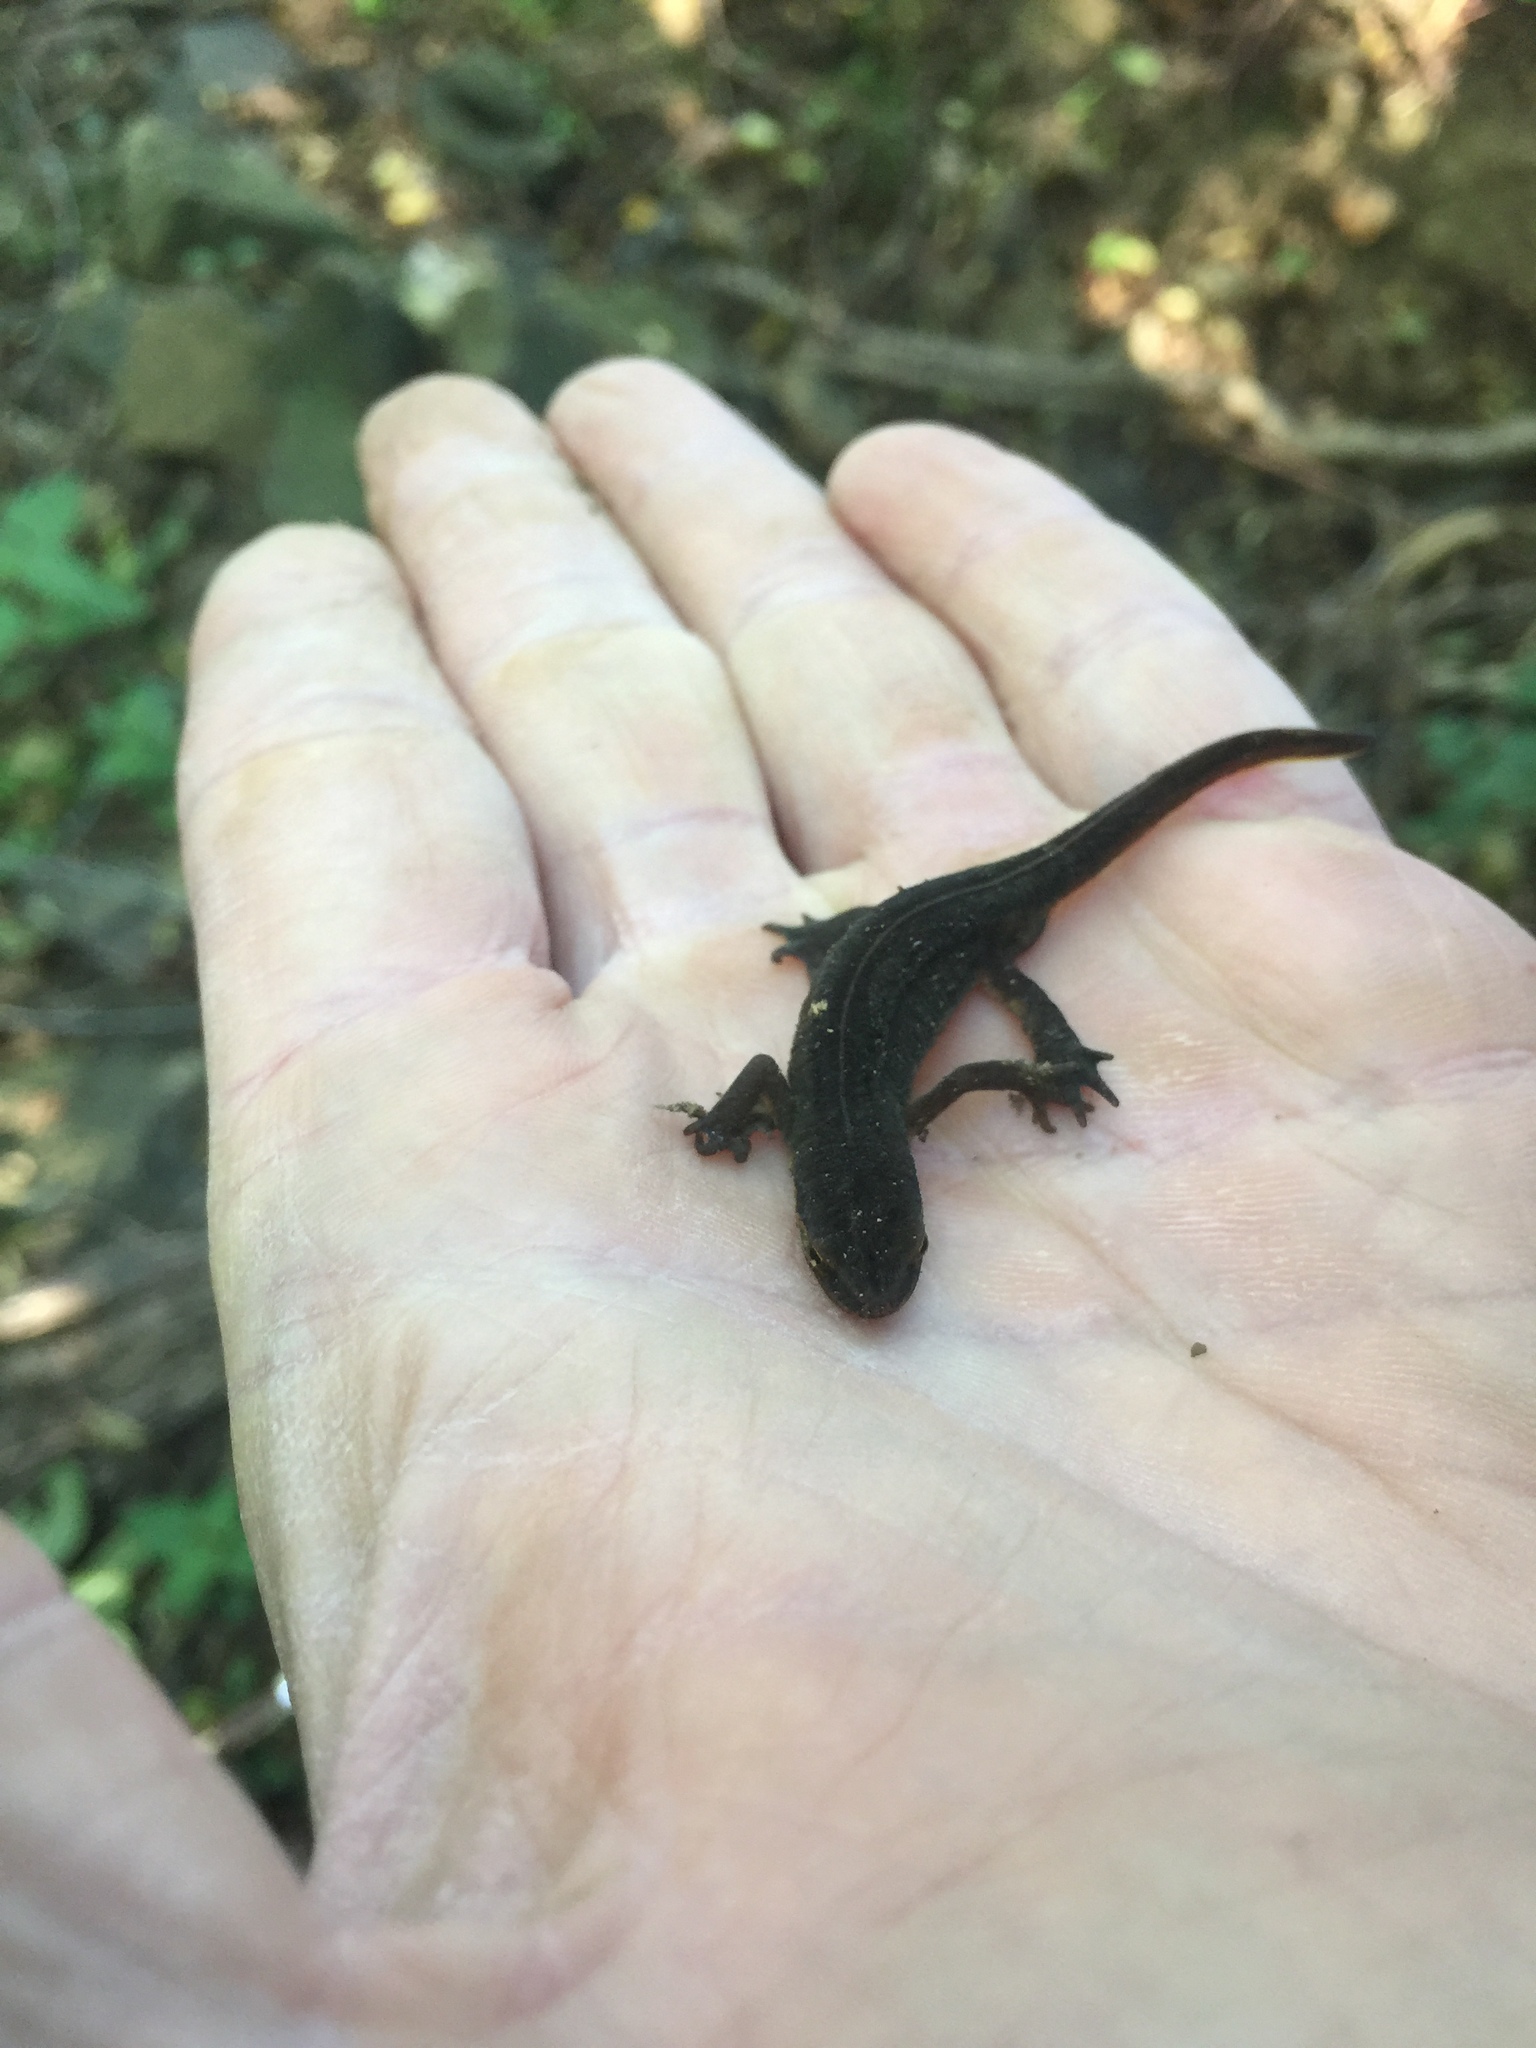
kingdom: Animalia
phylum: Chordata
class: Amphibia
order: Caudata
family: Salamandridae
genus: Lissotriton
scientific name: Lissotriton vulgaris
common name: Smooth newt
